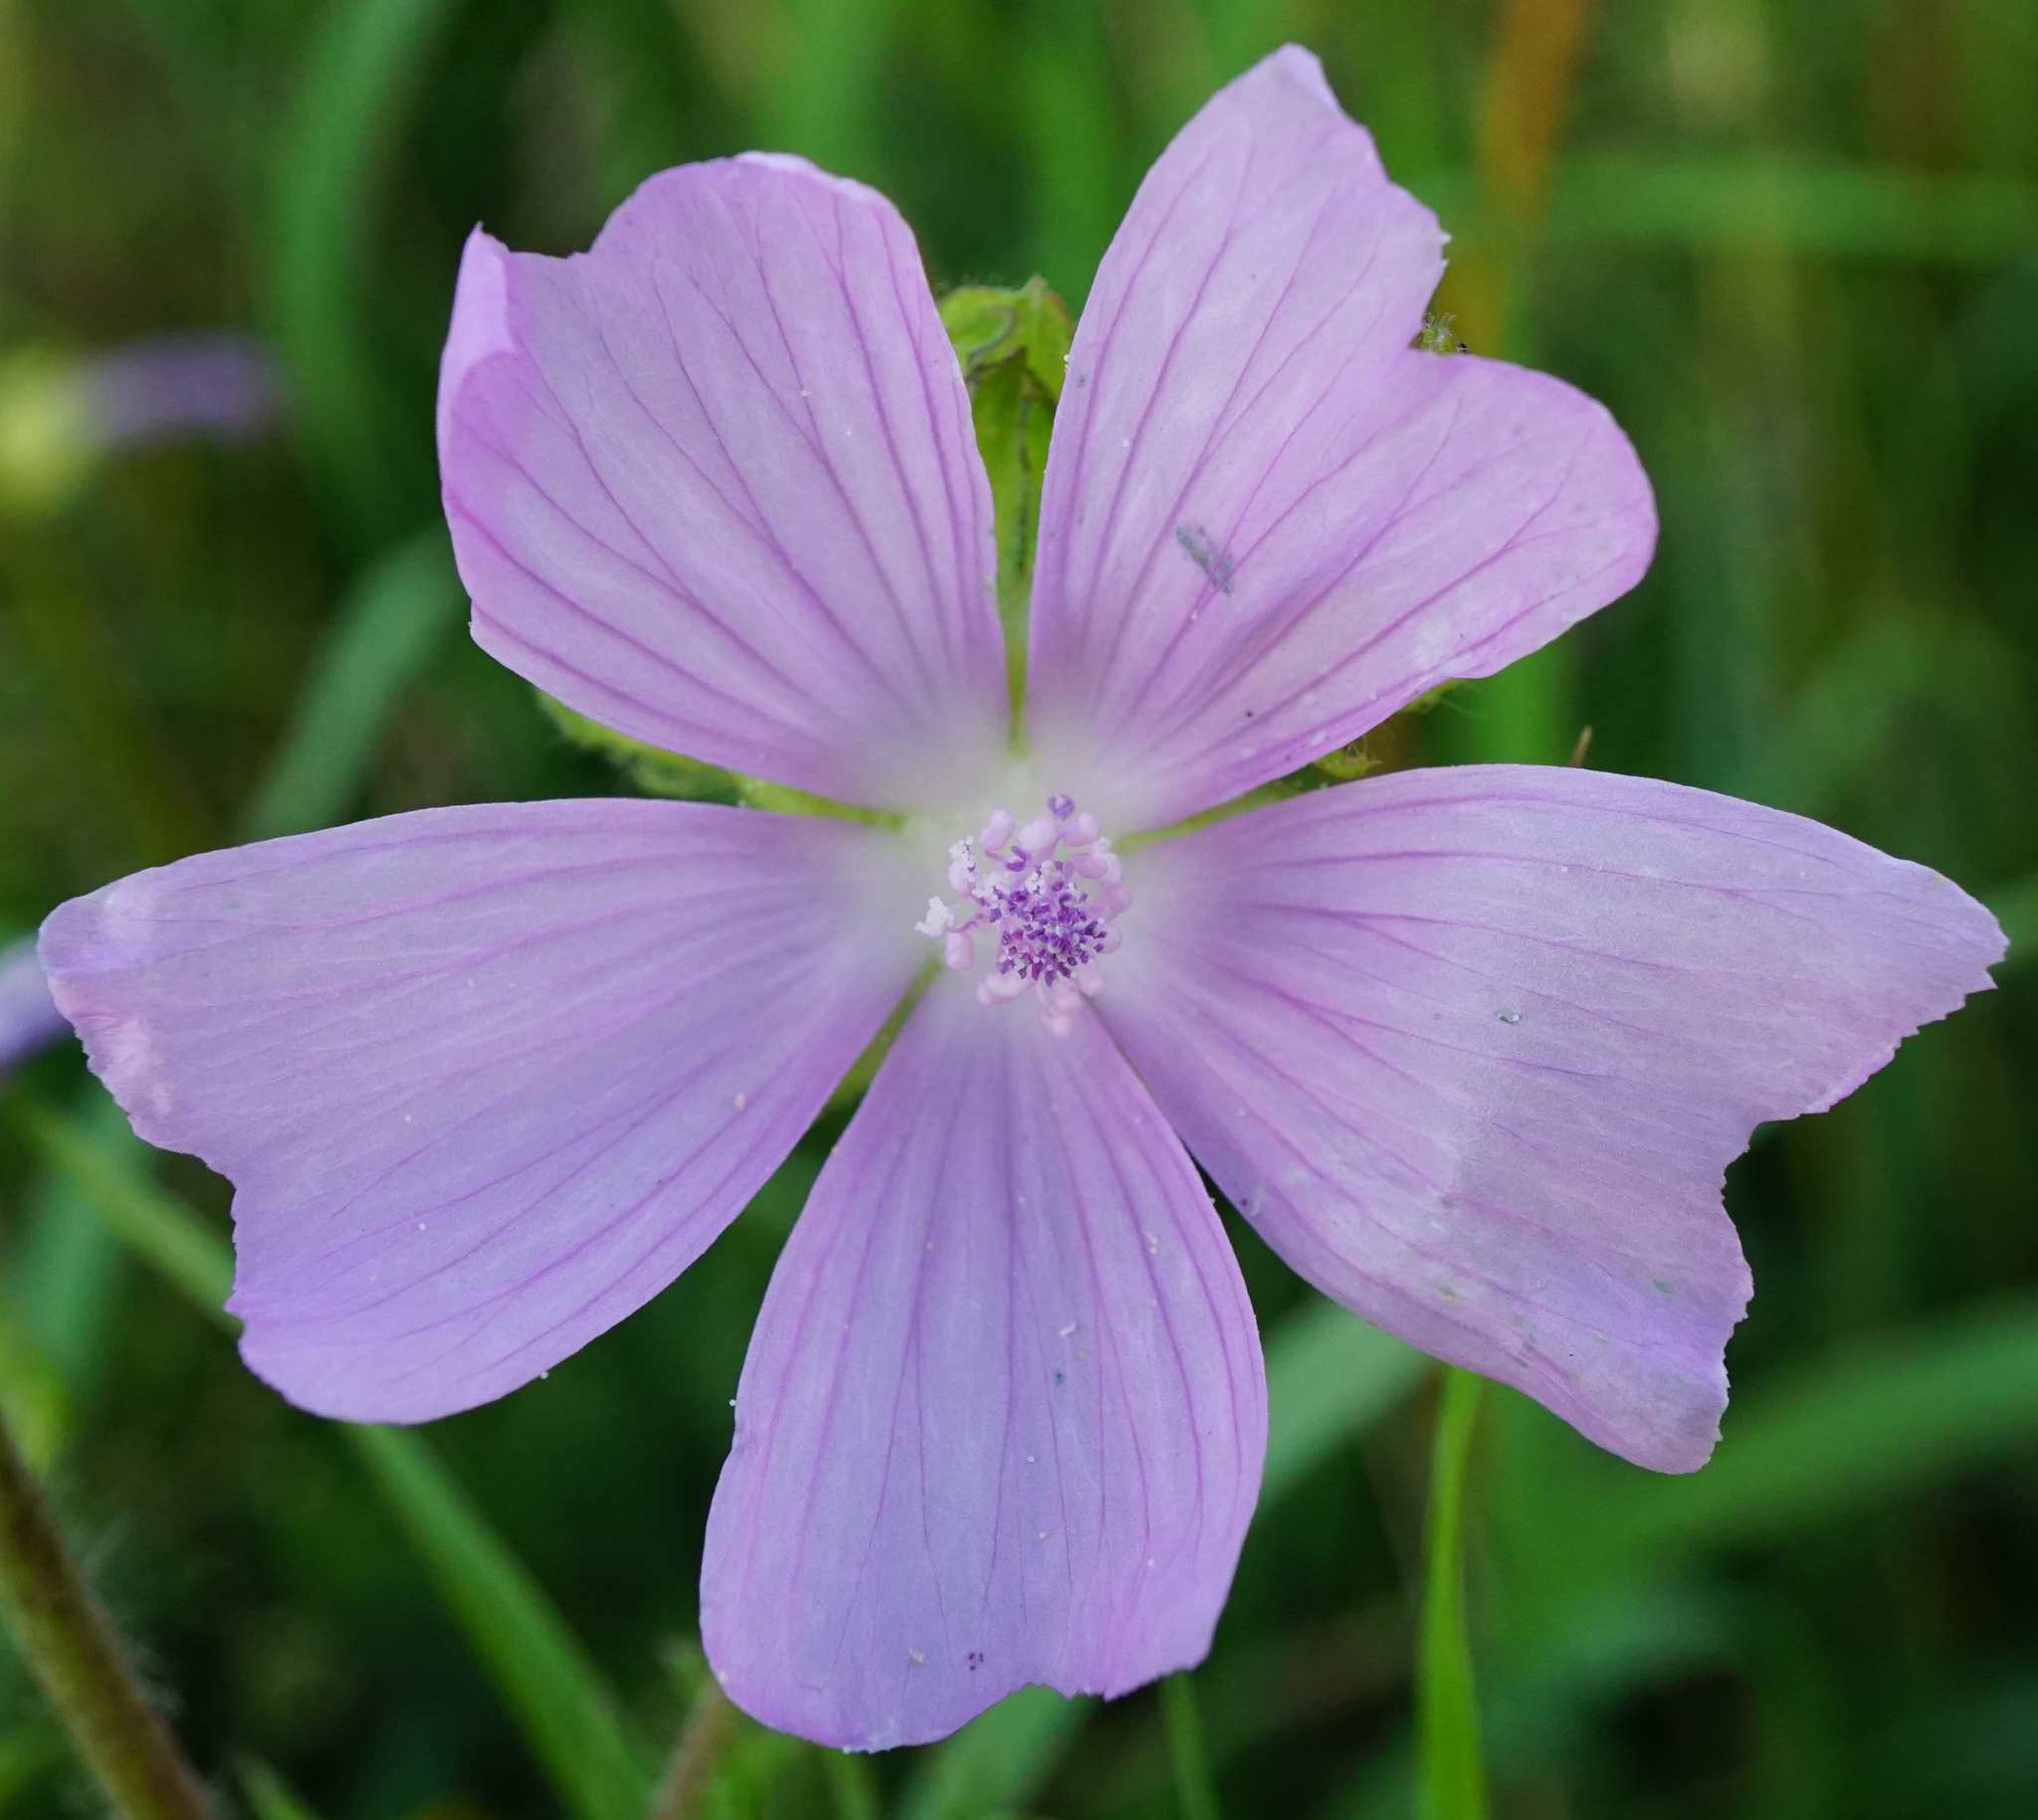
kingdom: Plantae
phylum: Tracheophyta
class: Magnoliopsida
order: Malvales
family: Malvaceae
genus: Malva
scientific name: Malva moschata
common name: Musk mallow
